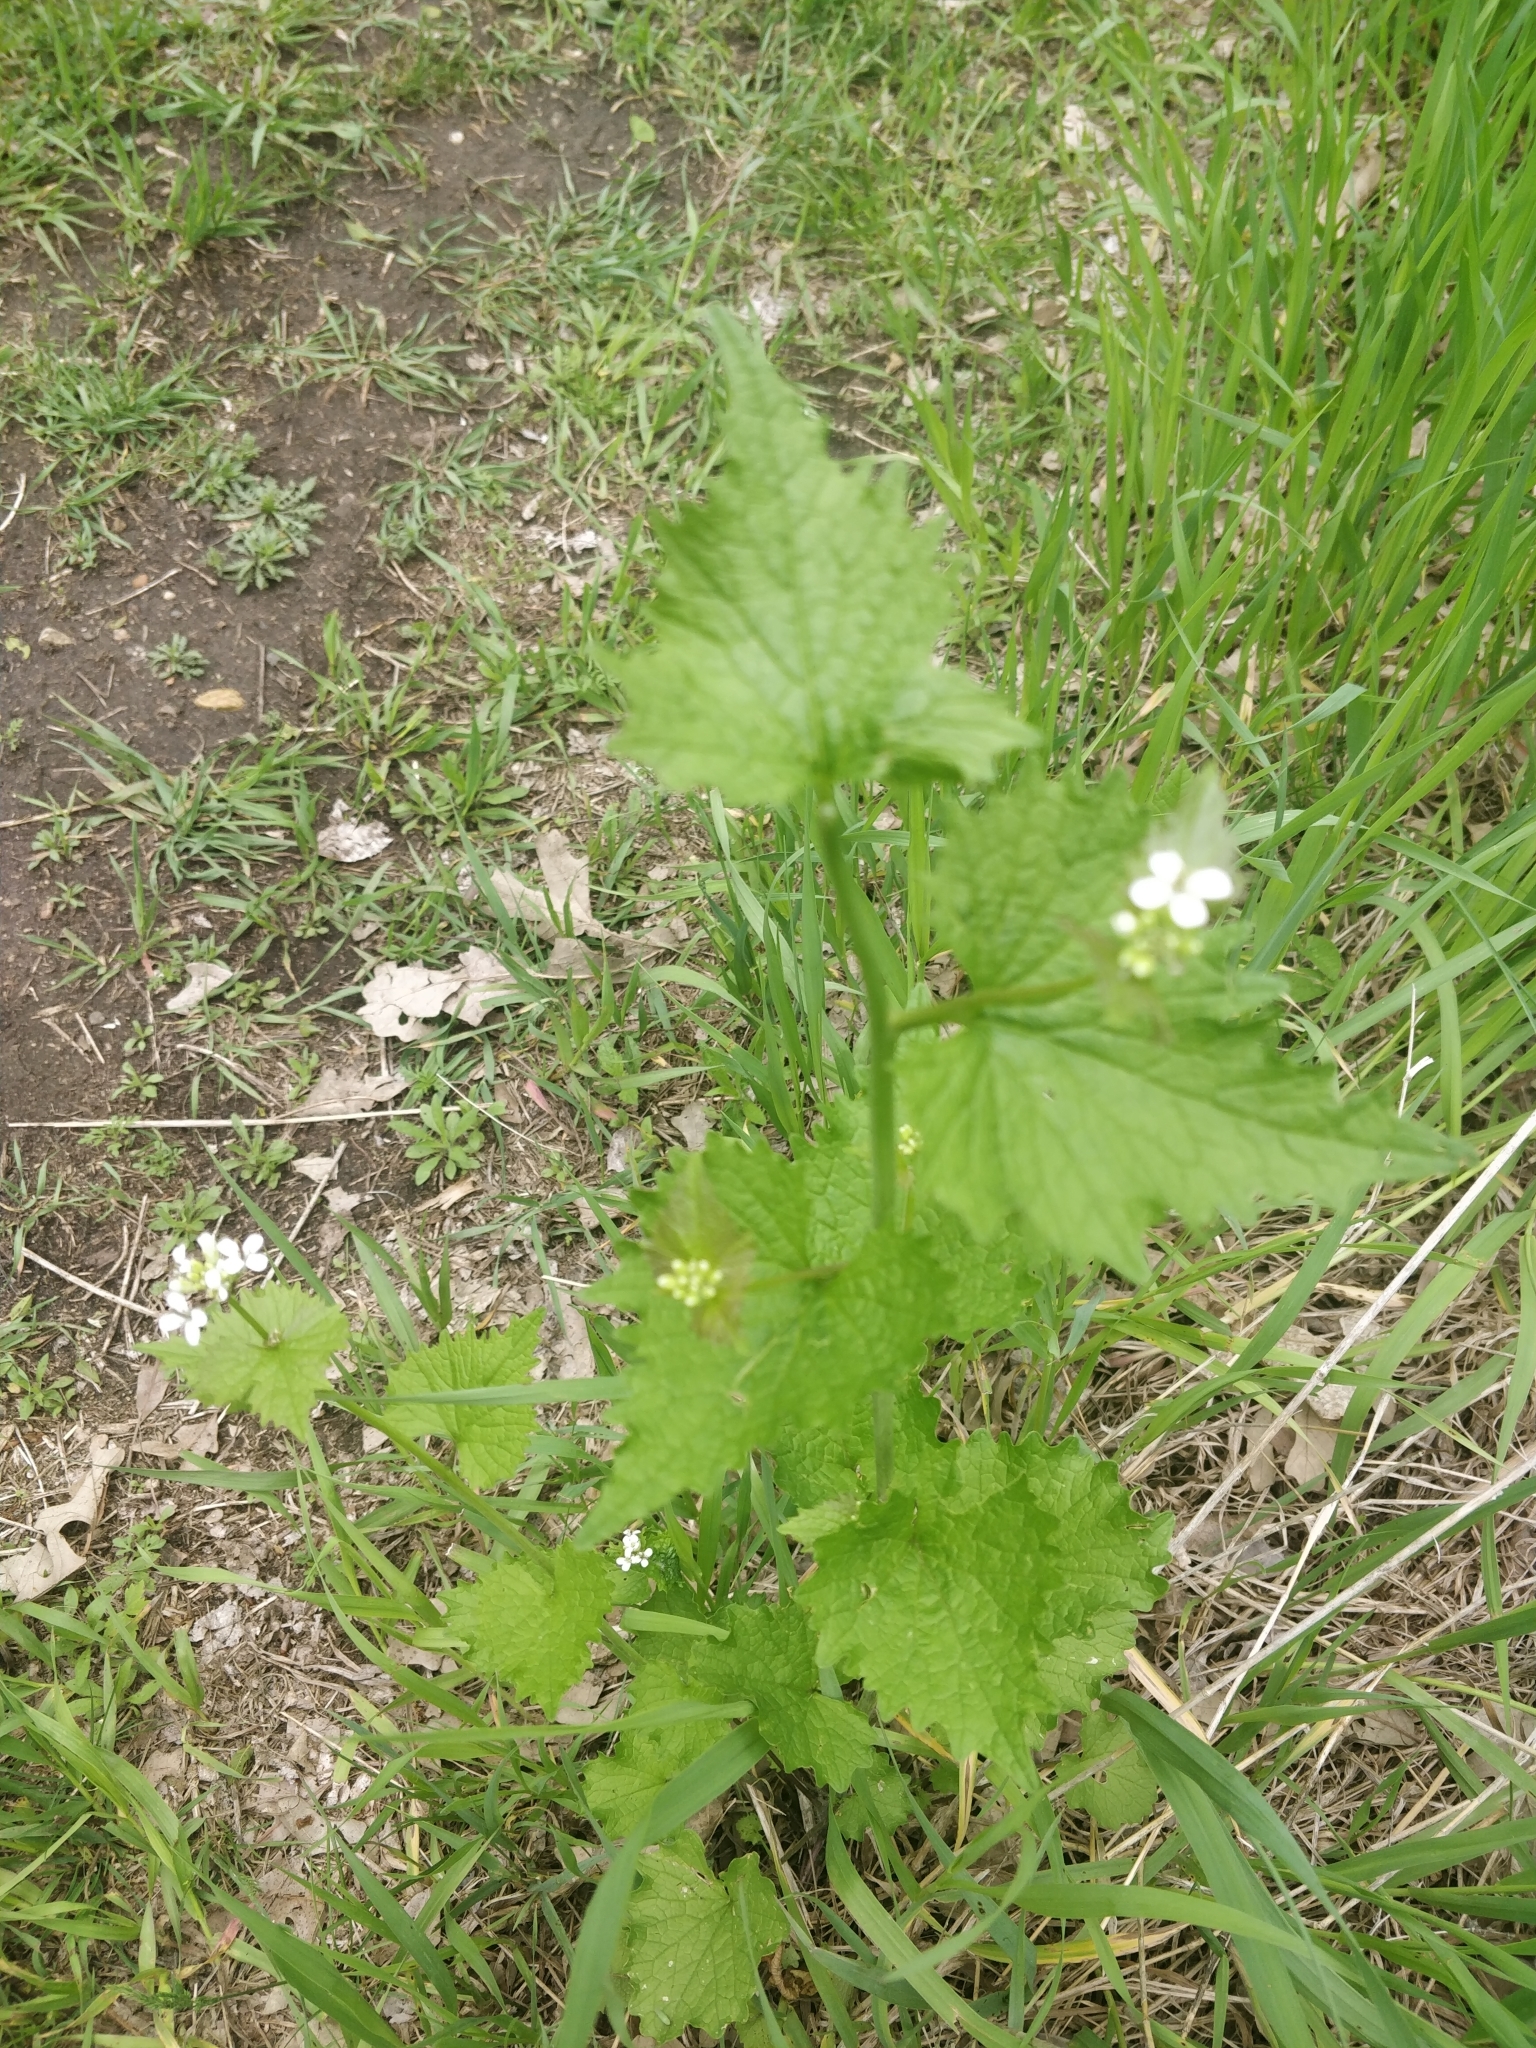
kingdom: Plantae
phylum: Tracheophyta
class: Magnoliopsida
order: Brassicales
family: Brassicaceae
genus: Alliaria
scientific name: Alliaria petiolata
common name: Garlic mustard
